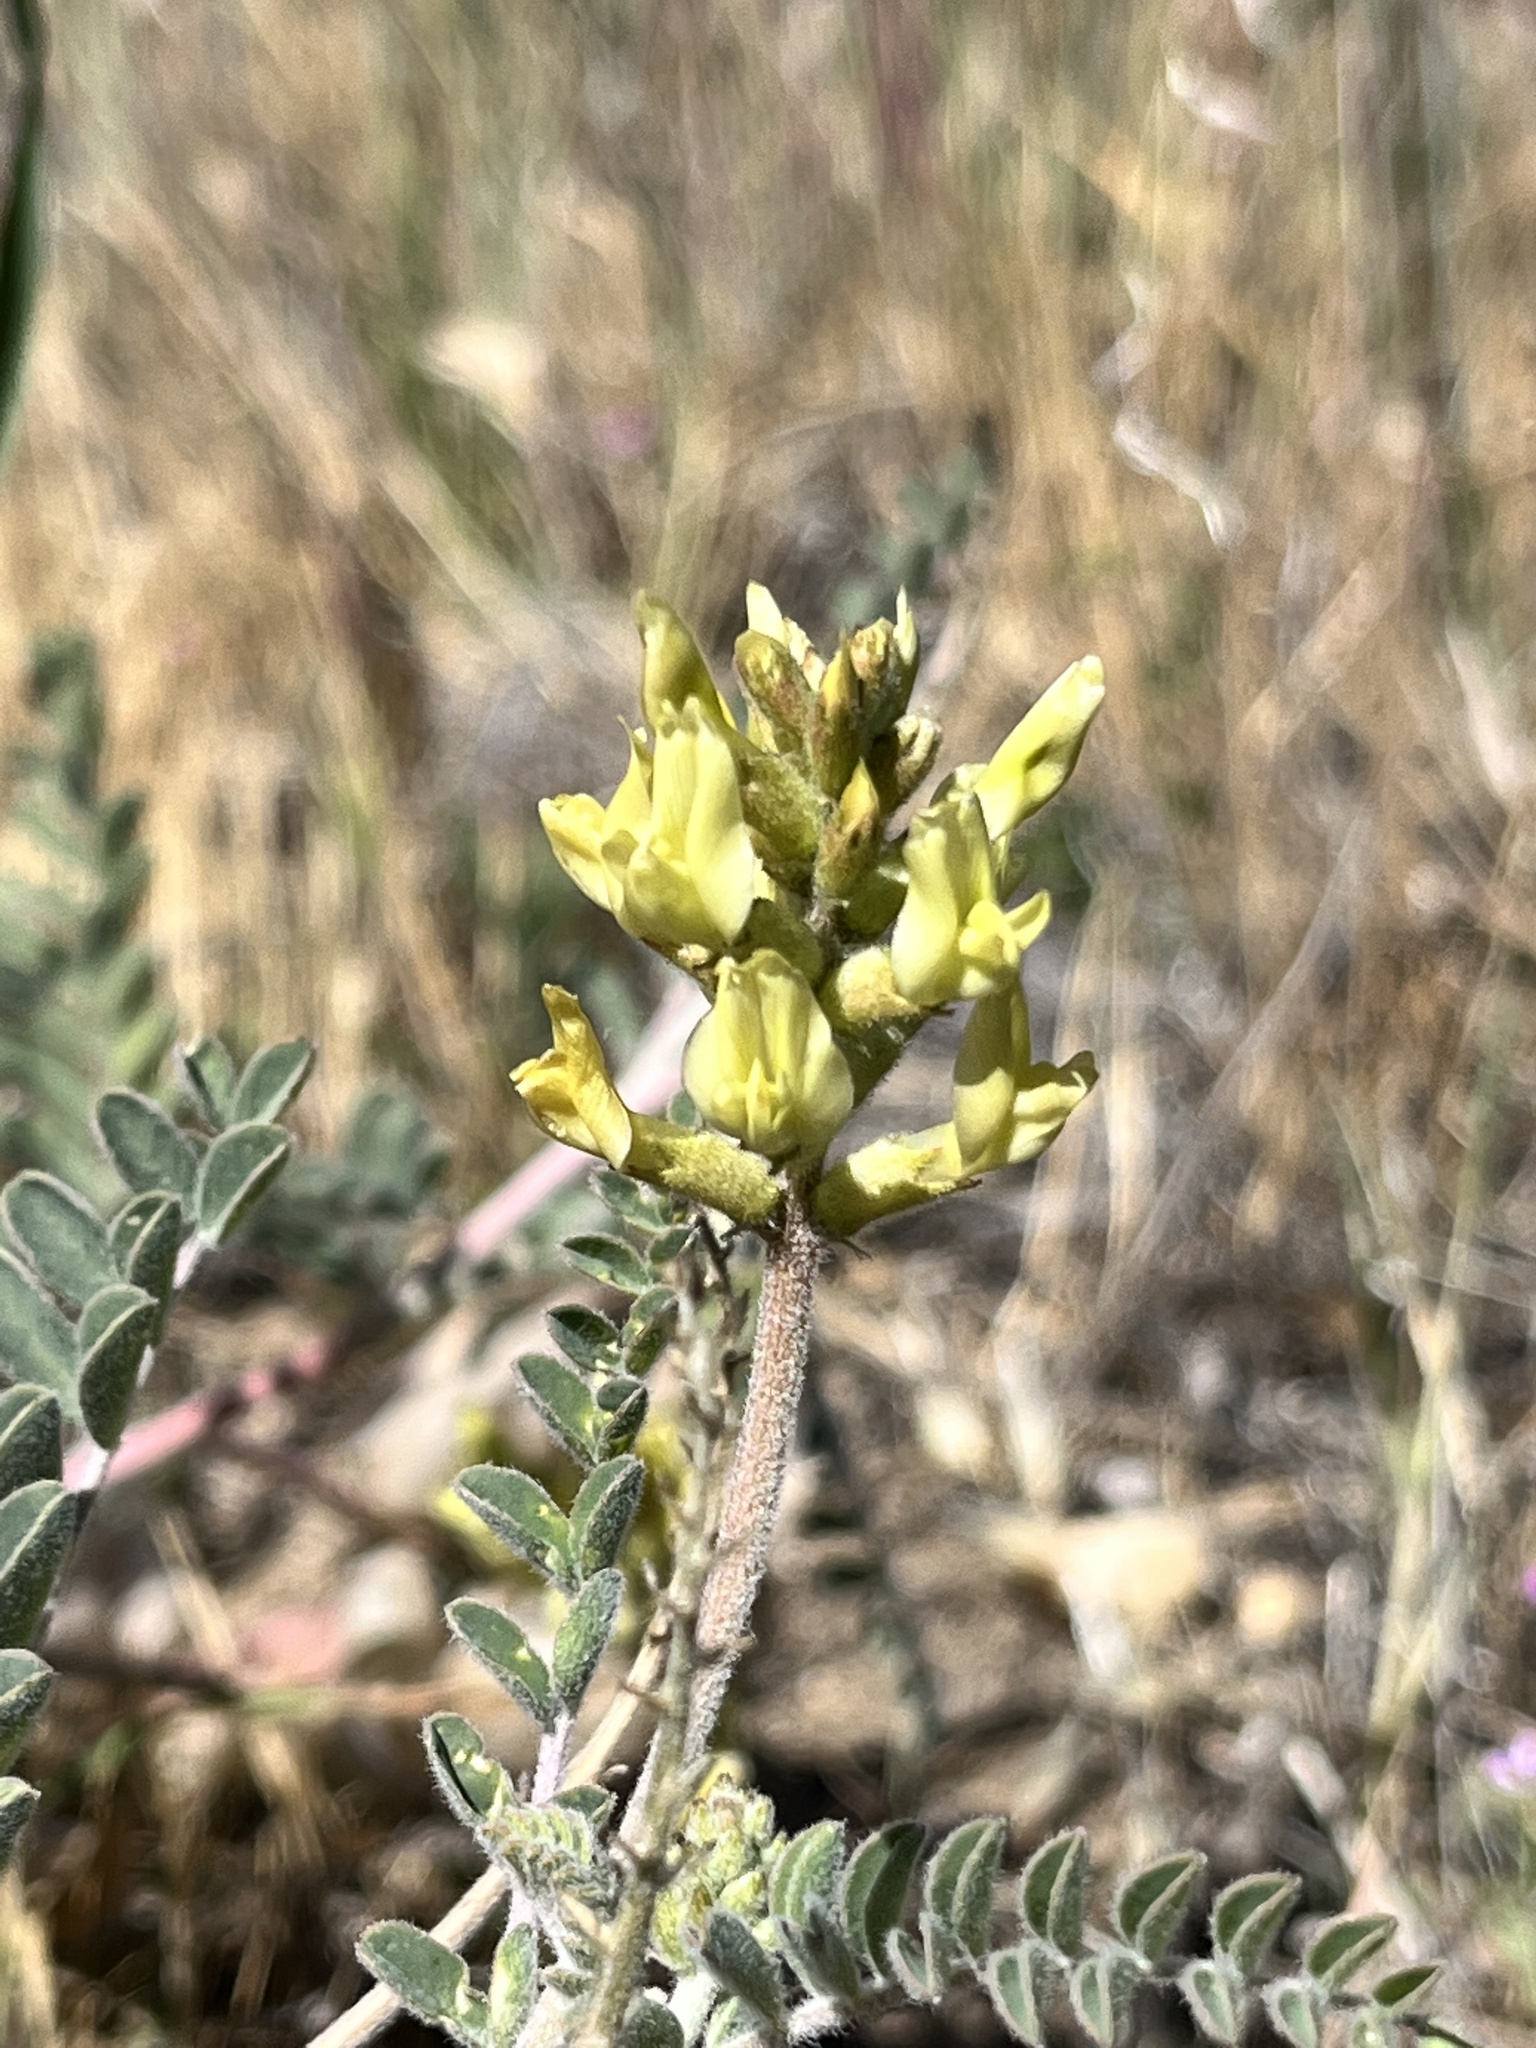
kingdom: Plantae
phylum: Tracheophyta
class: Magnoliopsida
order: Fabales
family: Fabaceae
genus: Astragalus
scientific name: Astragalus lentiginosus
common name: Freckled milkvetch
